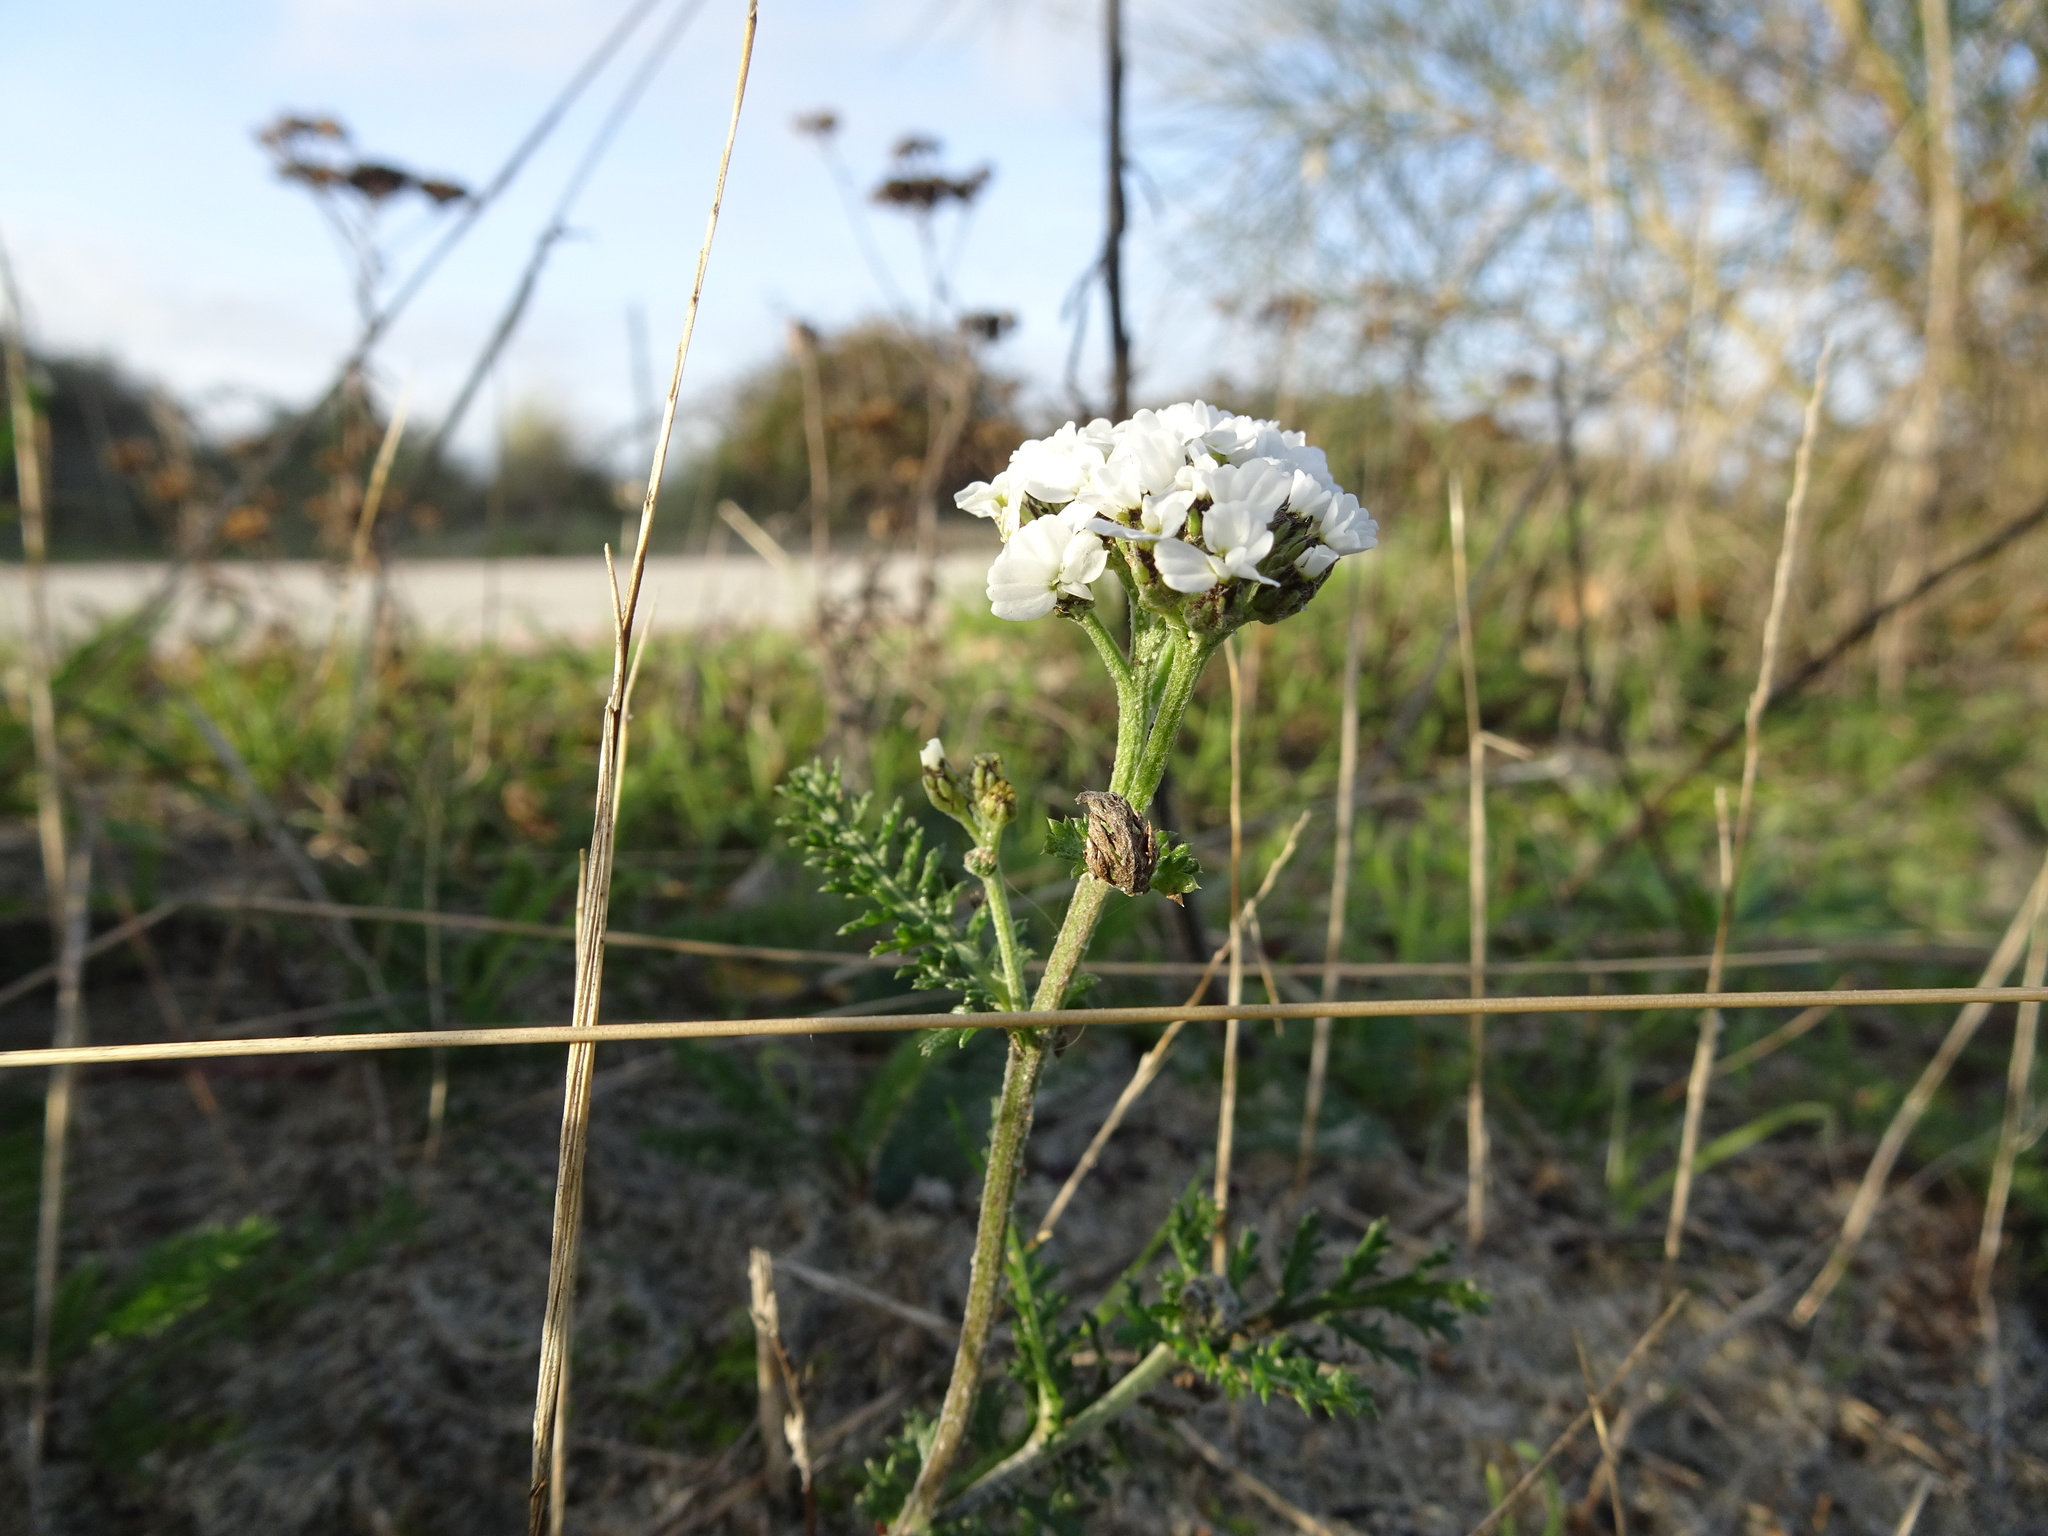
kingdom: Plantae
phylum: Tracheophyta
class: Magnoliopsida
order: Asterales
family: Asteraceae
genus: Achillea
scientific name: Achillea millefolium
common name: Yarrow
